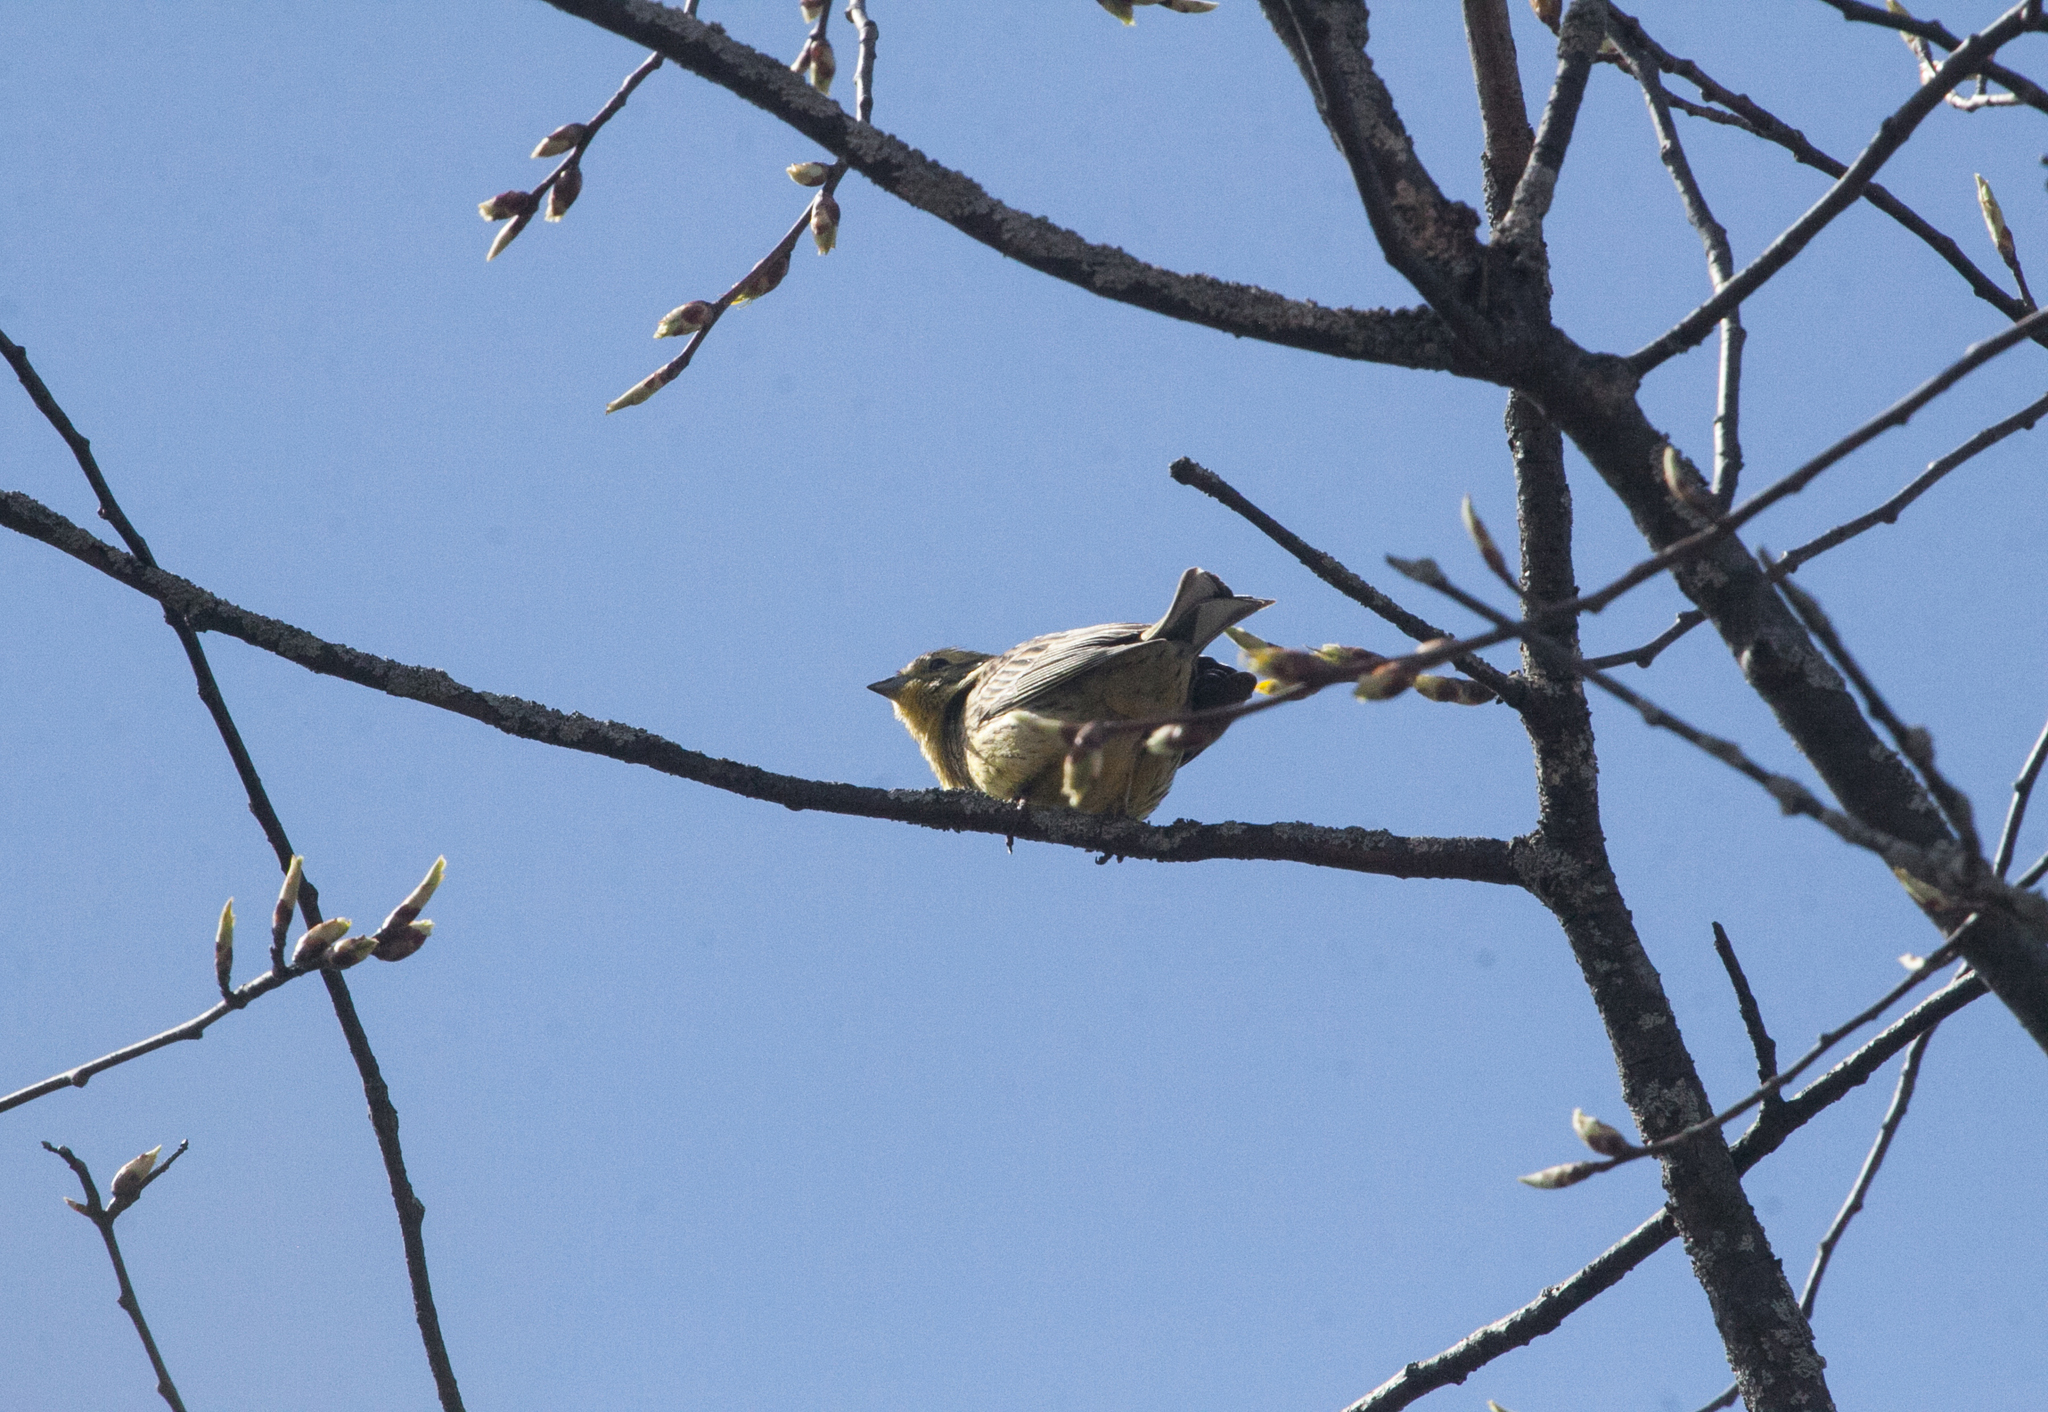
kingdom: Animalia
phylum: Chordata
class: Aves
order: Passeriformes
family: Emberizidae
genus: Emberiza
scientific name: Emberiza citrinella
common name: Yellowhammer
